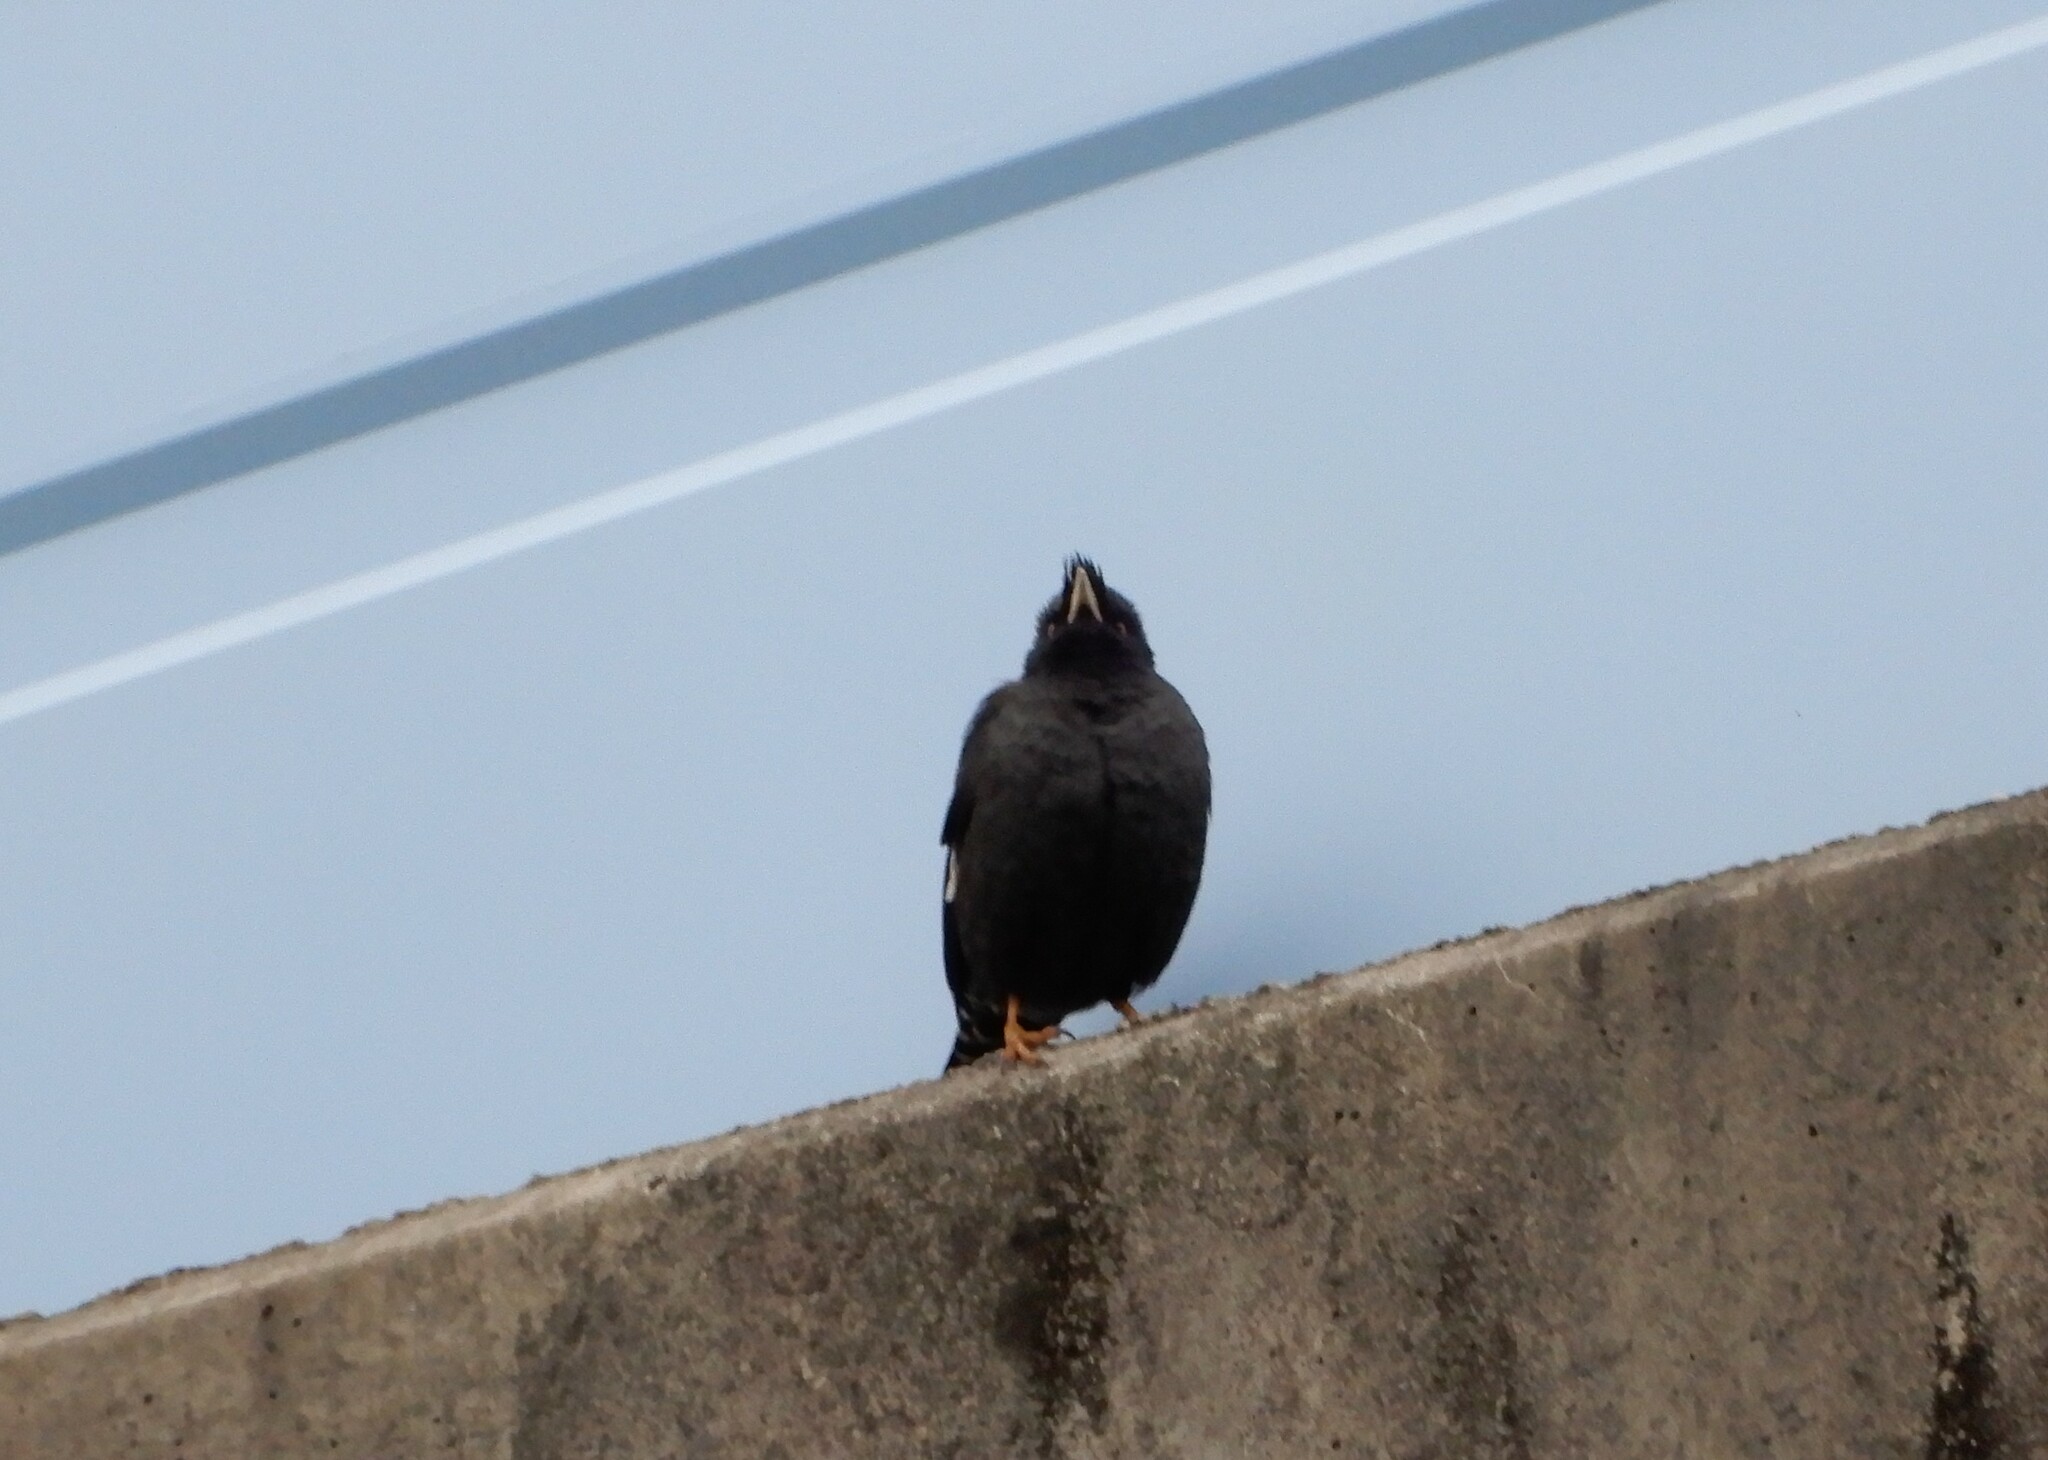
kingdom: Animalia
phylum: Chordata
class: Aves
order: Passeriformes
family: Sturnidae
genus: Acridotheres
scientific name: Acridotheres cristatellus
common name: Crested myna
